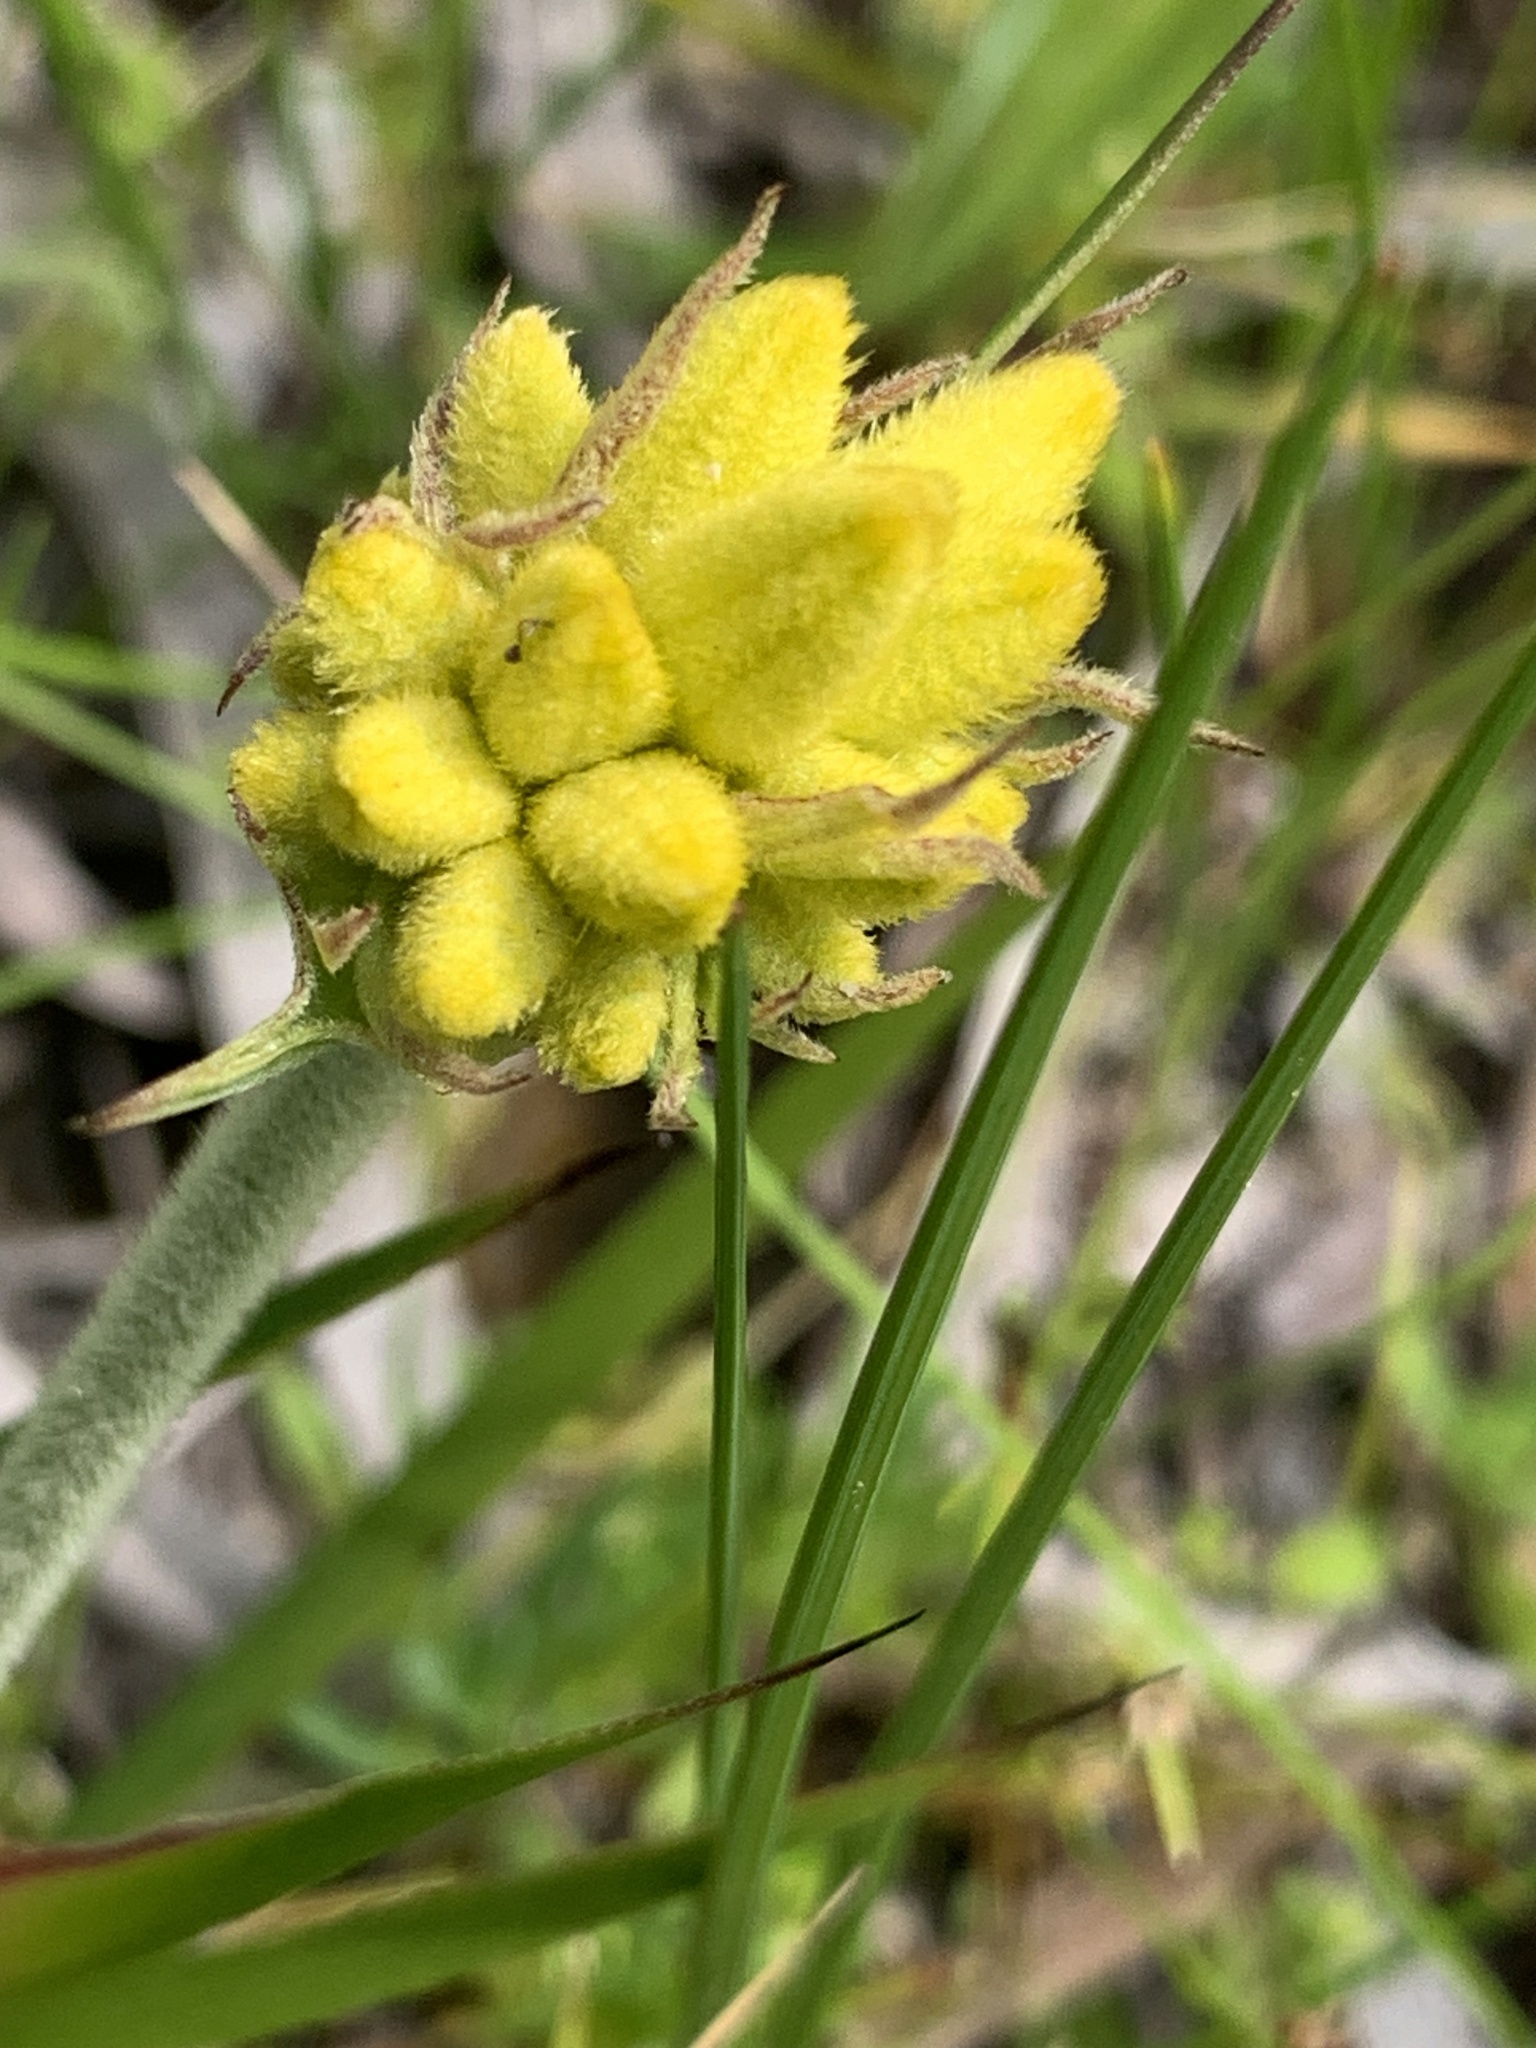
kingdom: Plantae
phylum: Tracheophyta
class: Liliopsida
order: Commelinales
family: Haemodoraceae
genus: Conostylis
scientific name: Conostylis aculeata
